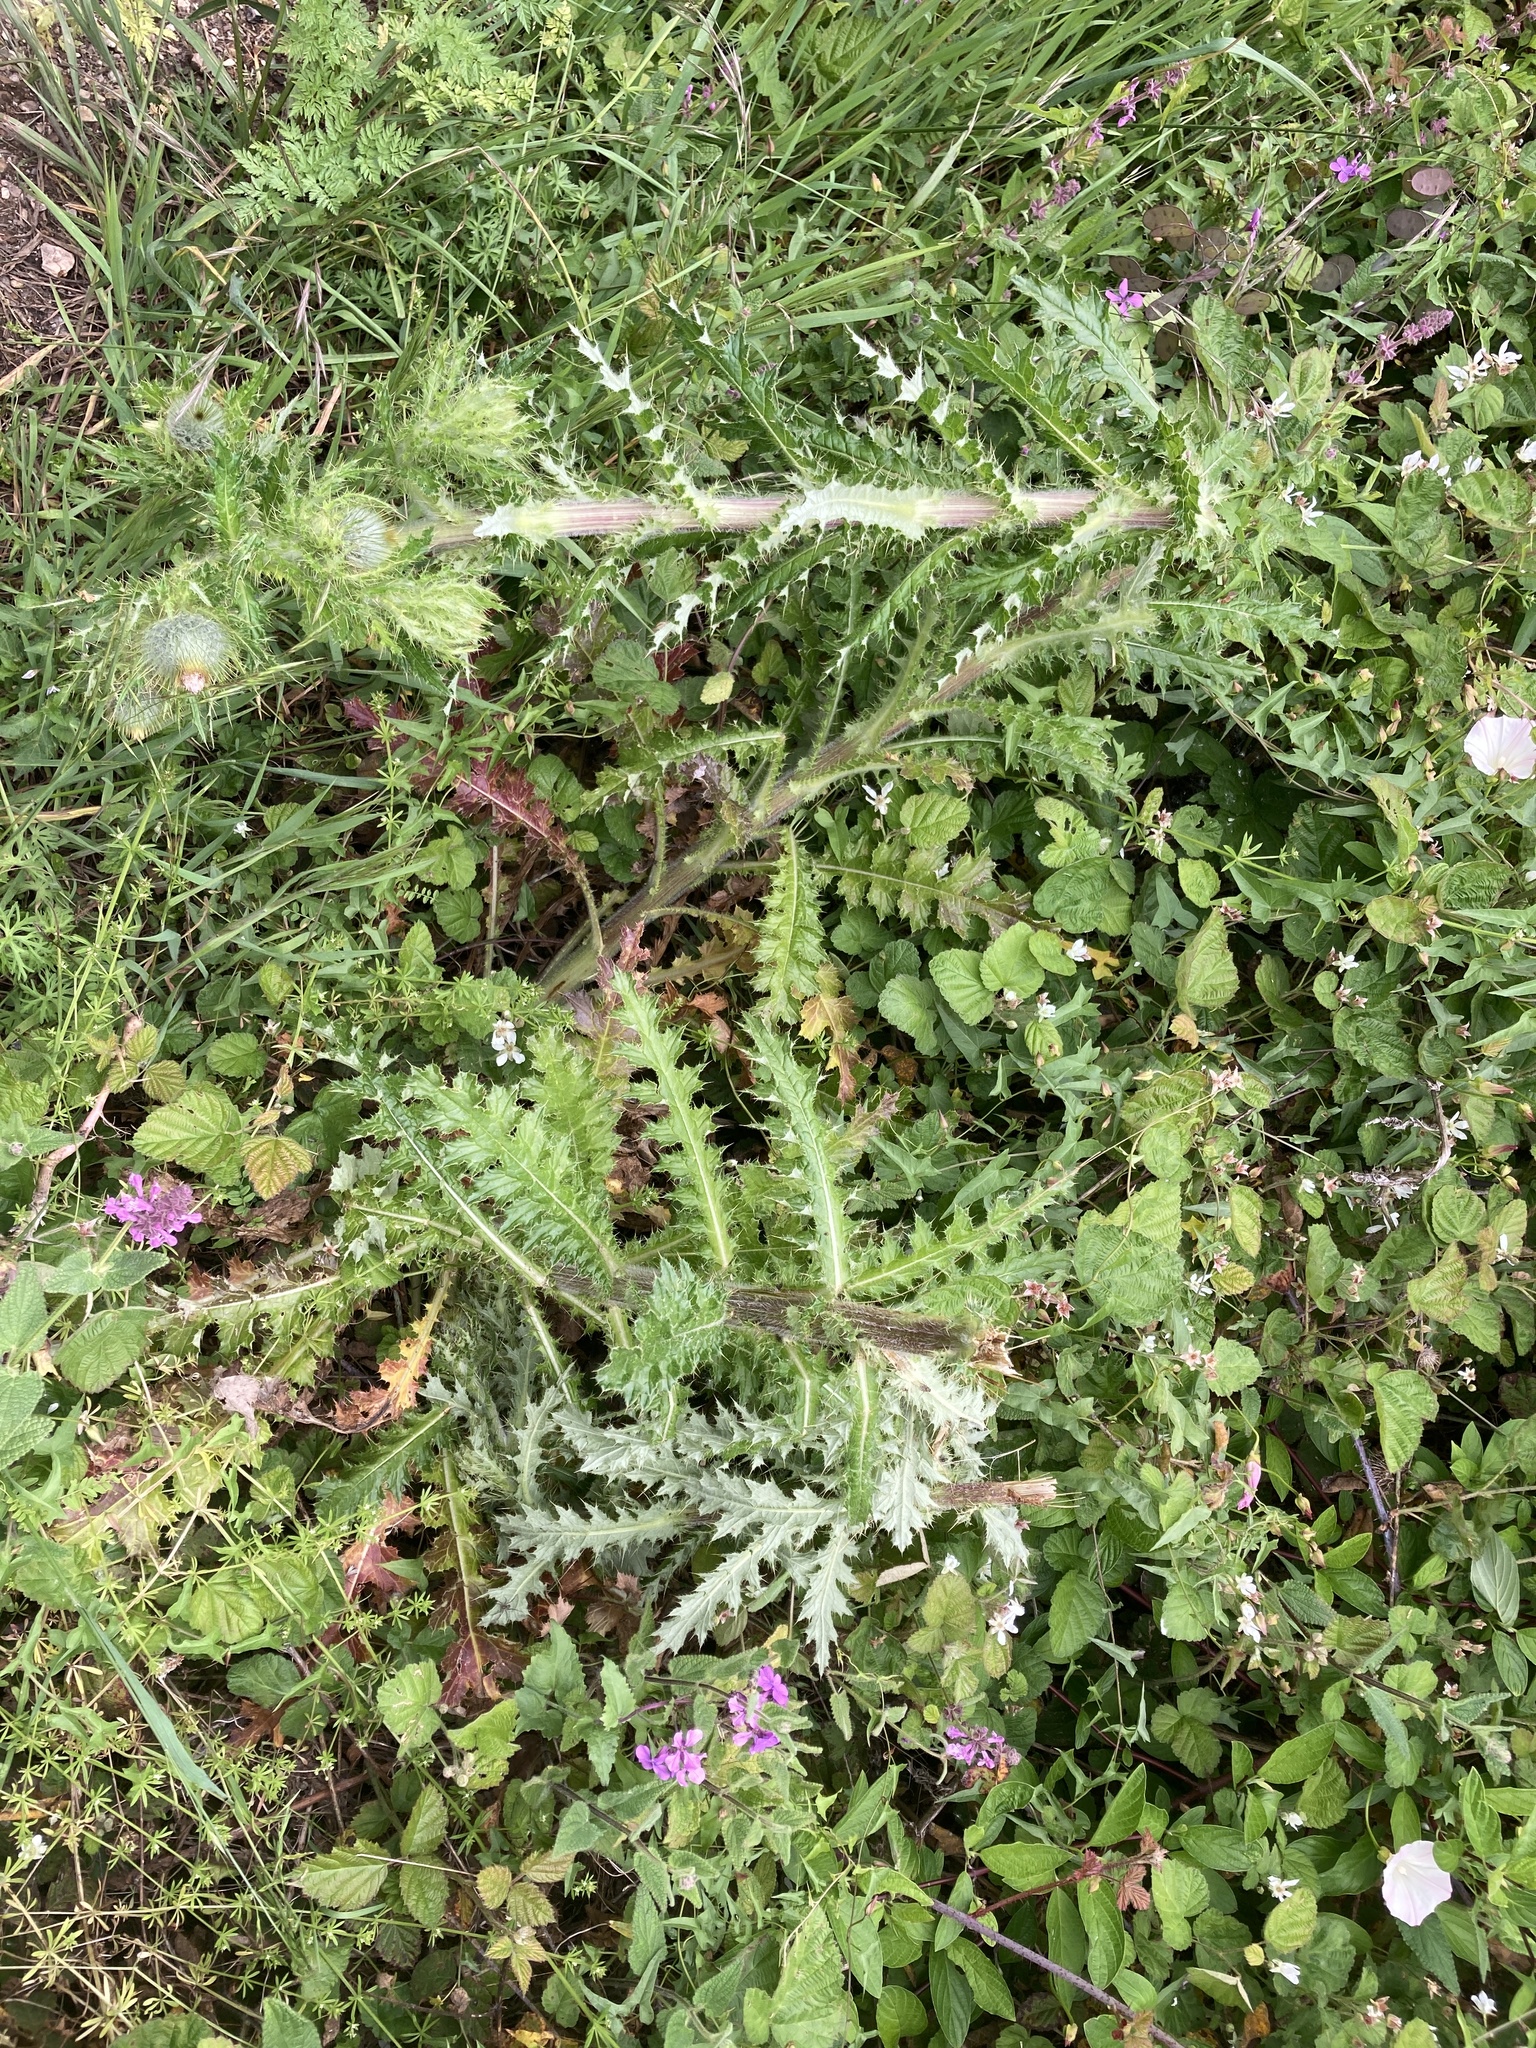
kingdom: Plantae
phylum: Tracheophyta
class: Magnoliopsida
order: Asterales
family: Asteraceae
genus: Cirsium
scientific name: Cirsium brevistylum
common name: Indian thistle
